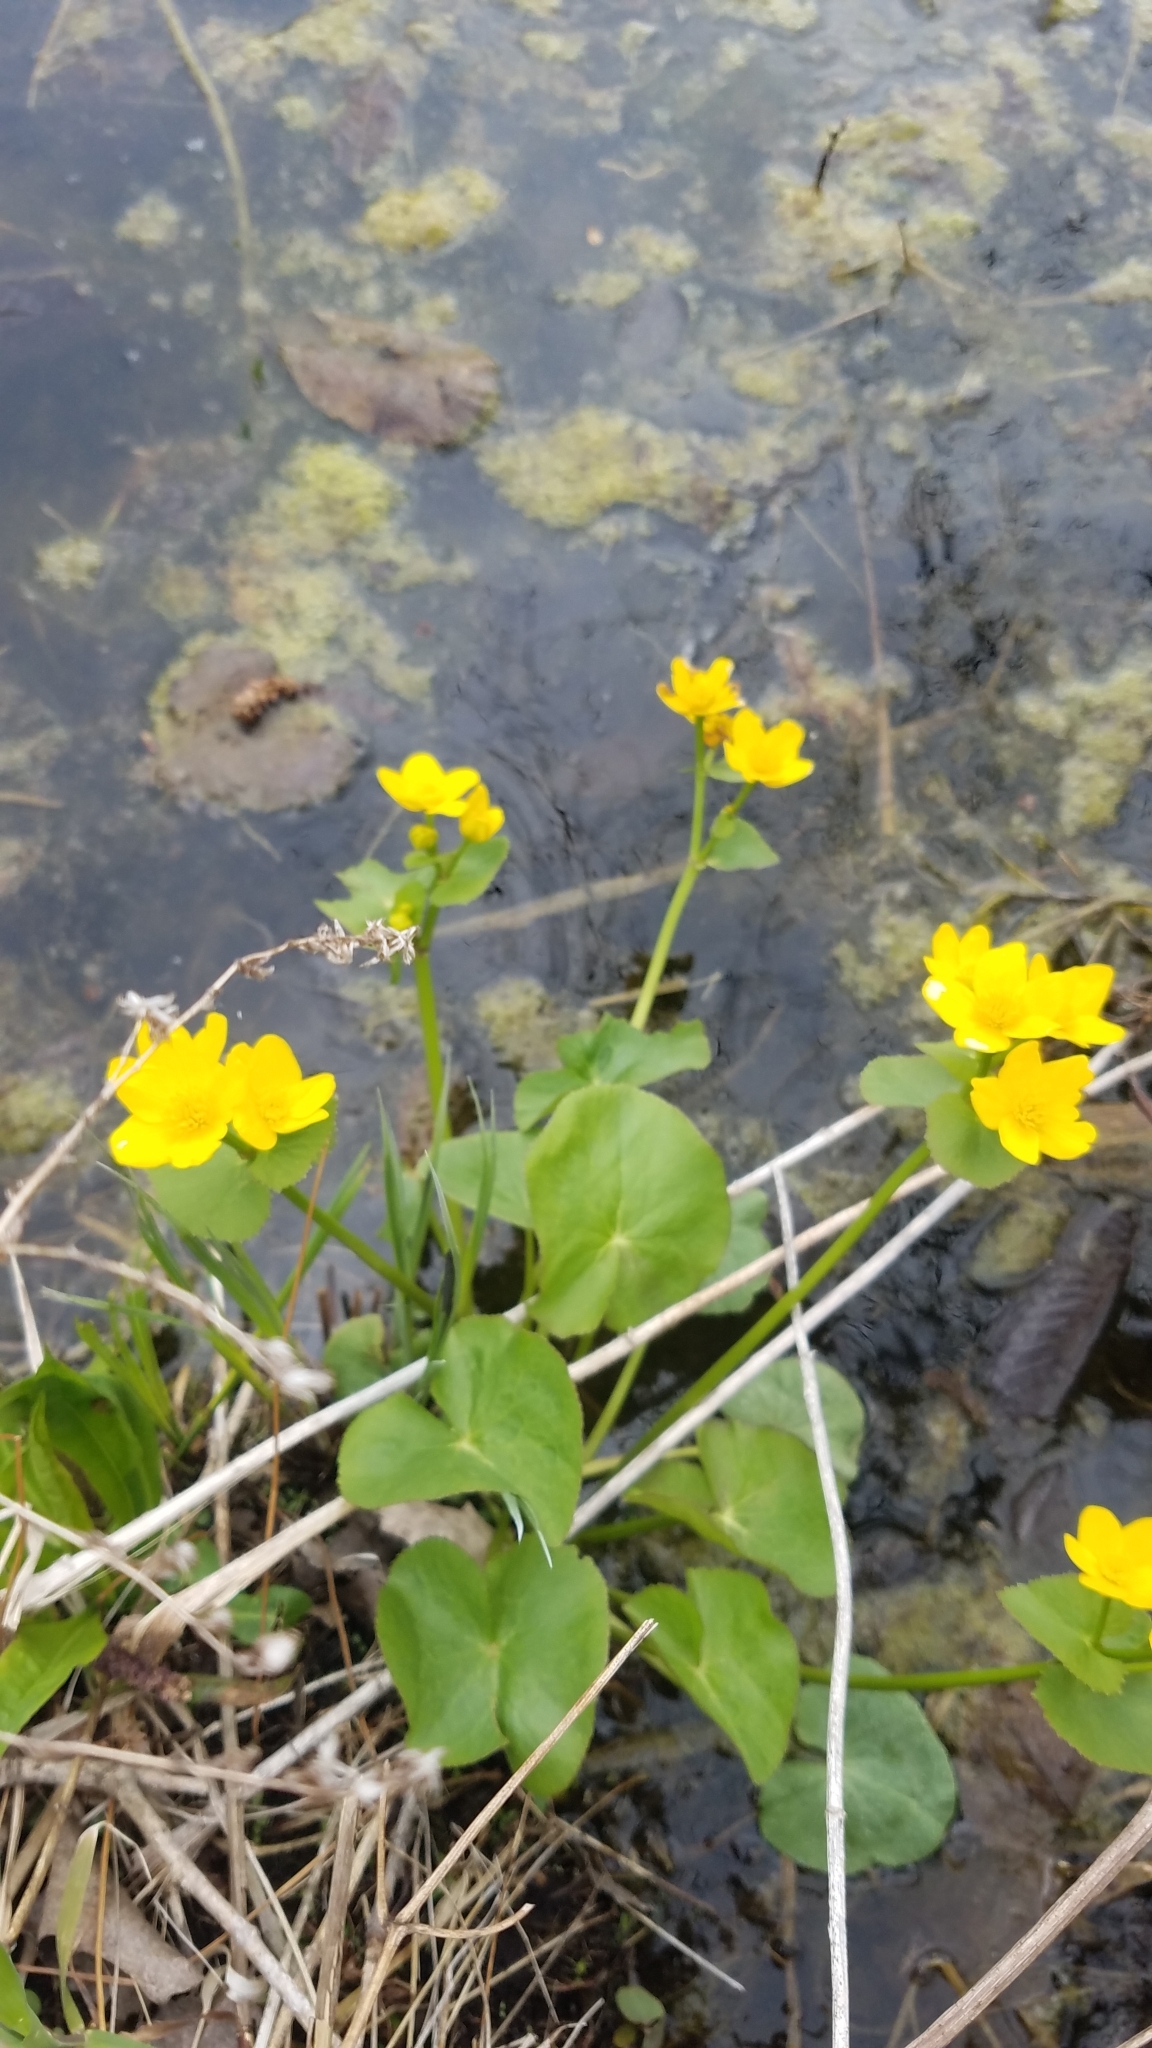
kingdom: Plantae
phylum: Tracheophyta
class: Magnoliopsida
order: Ranunculales
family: Ranunculaceae
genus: Caltha
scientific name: Caltha palustris
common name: Marsh marigold
